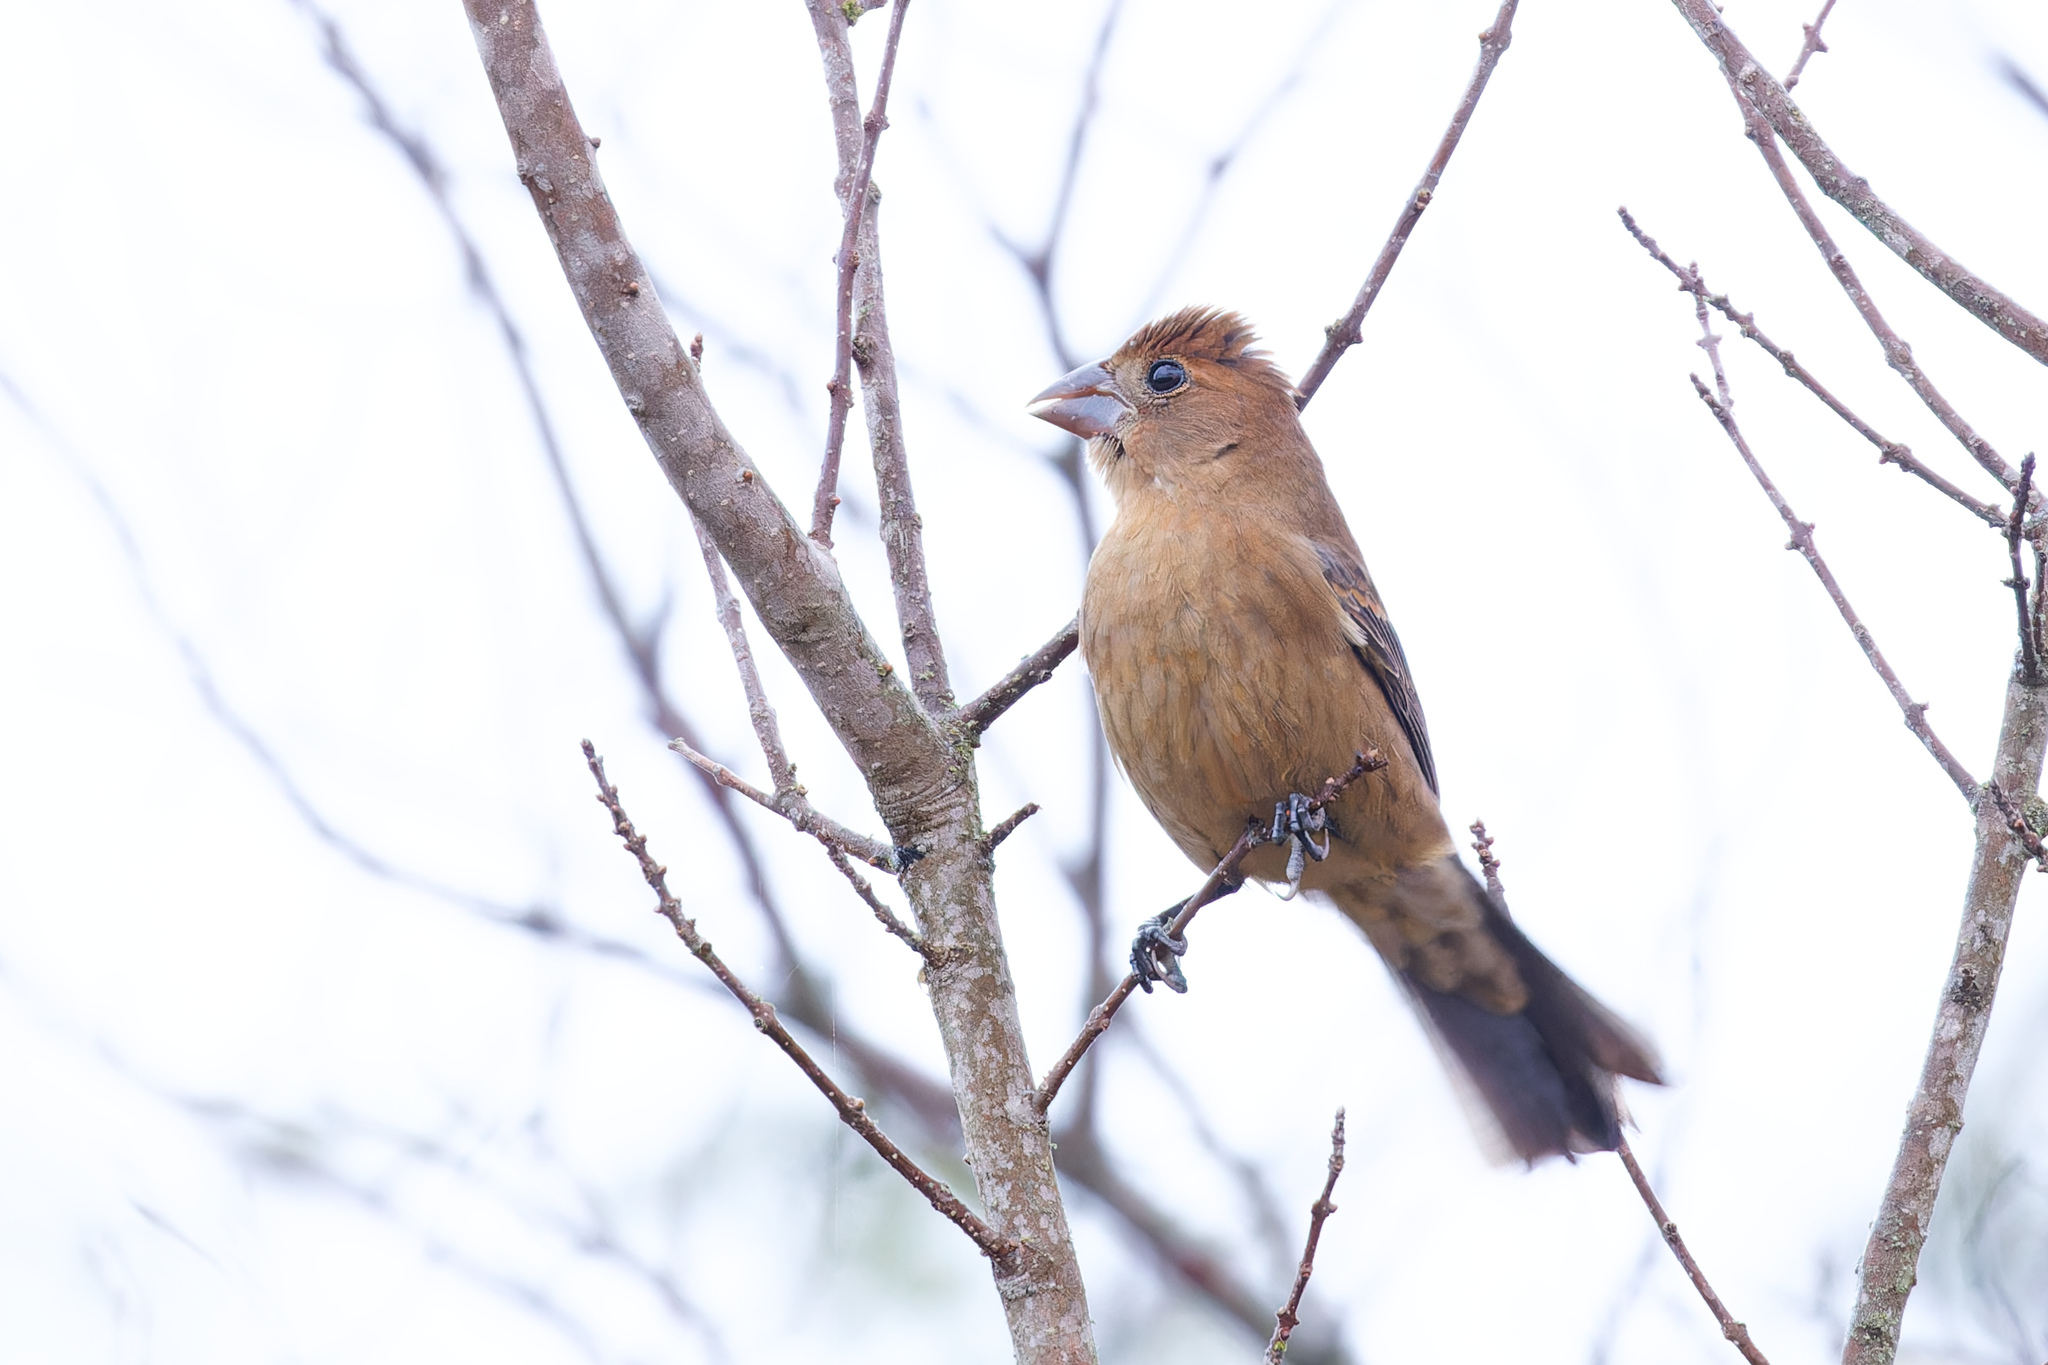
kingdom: Animalia
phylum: Chordata
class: Aves
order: Passeriformes
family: Cardinalidae
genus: Passerina
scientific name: Passerina caerulea
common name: Blue grosbeak
